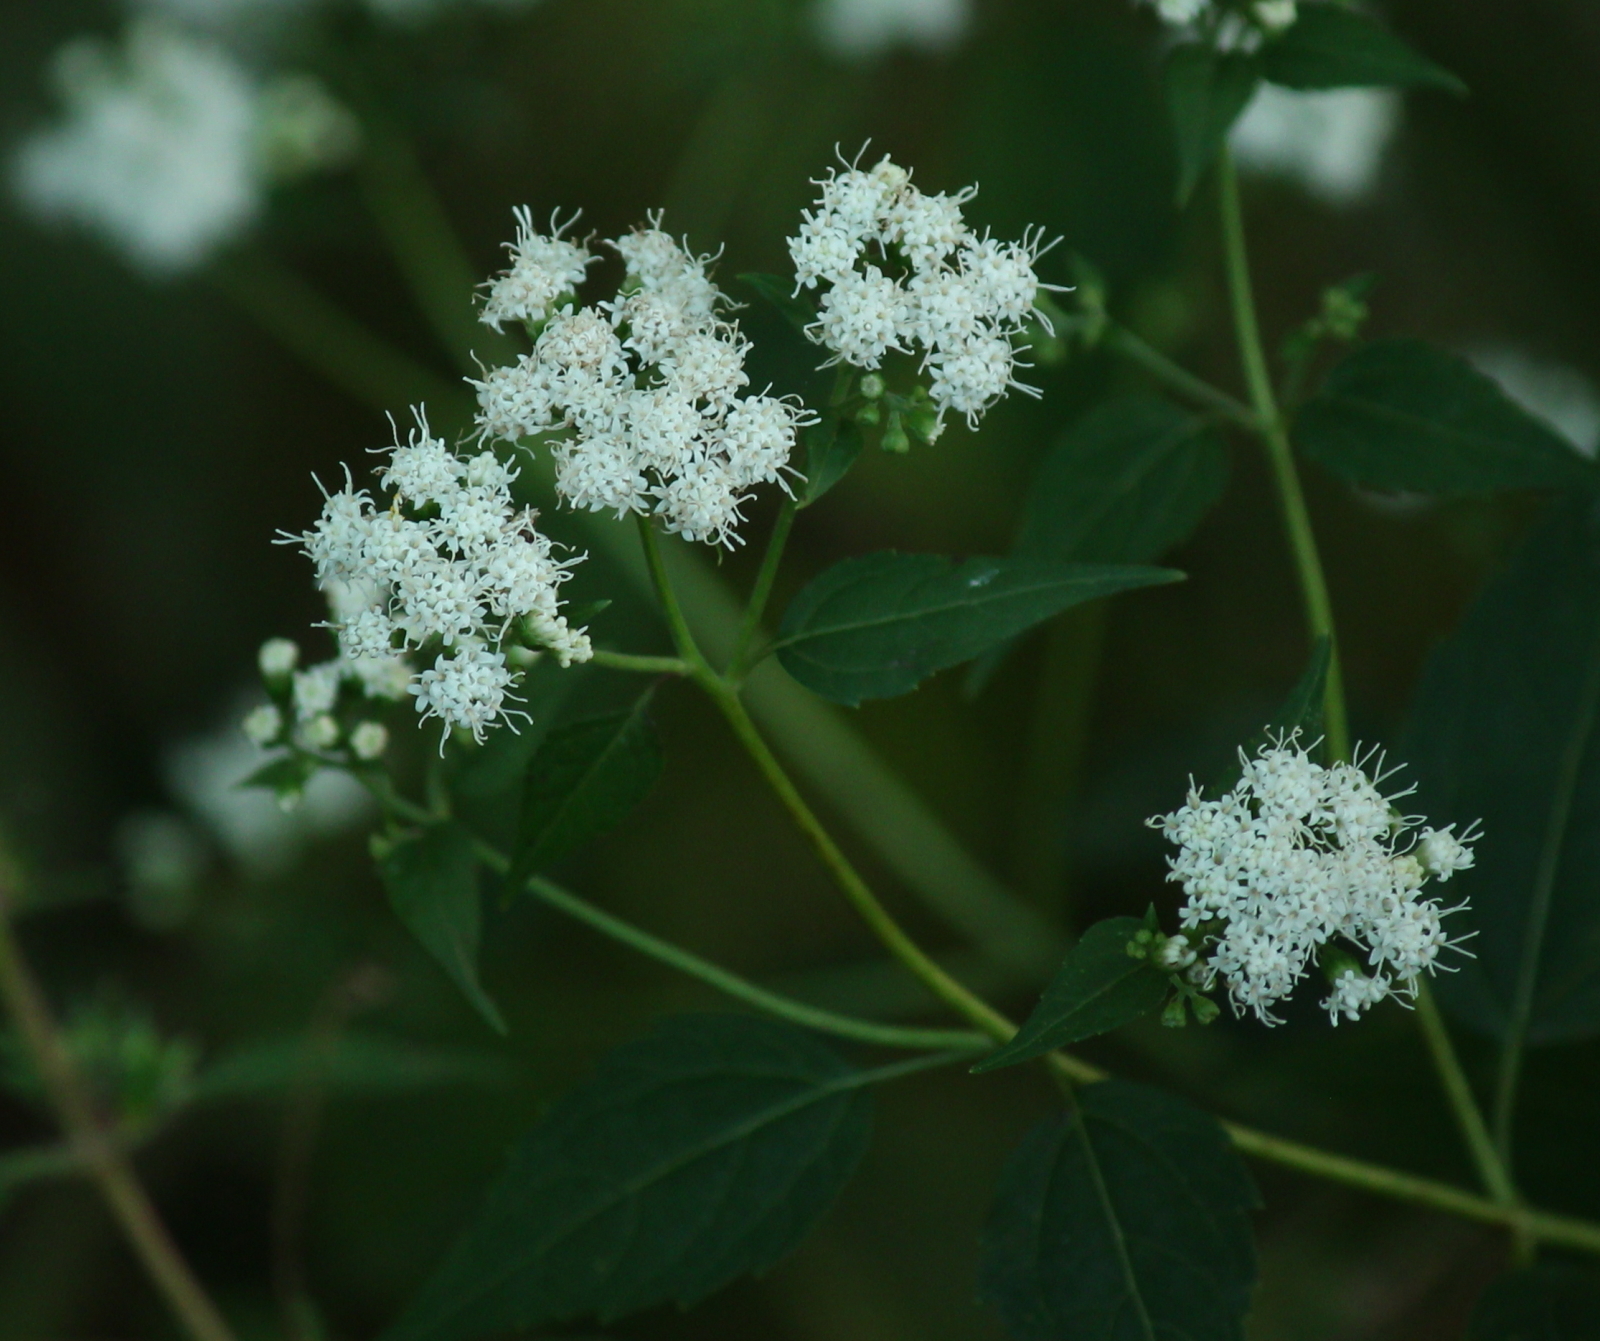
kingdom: Plantae
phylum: Tracheophyta
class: Magnoliopsida
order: Asterales
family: Asteraceae
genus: Ageratina
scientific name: Ageratina altissima
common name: White snakeroot
